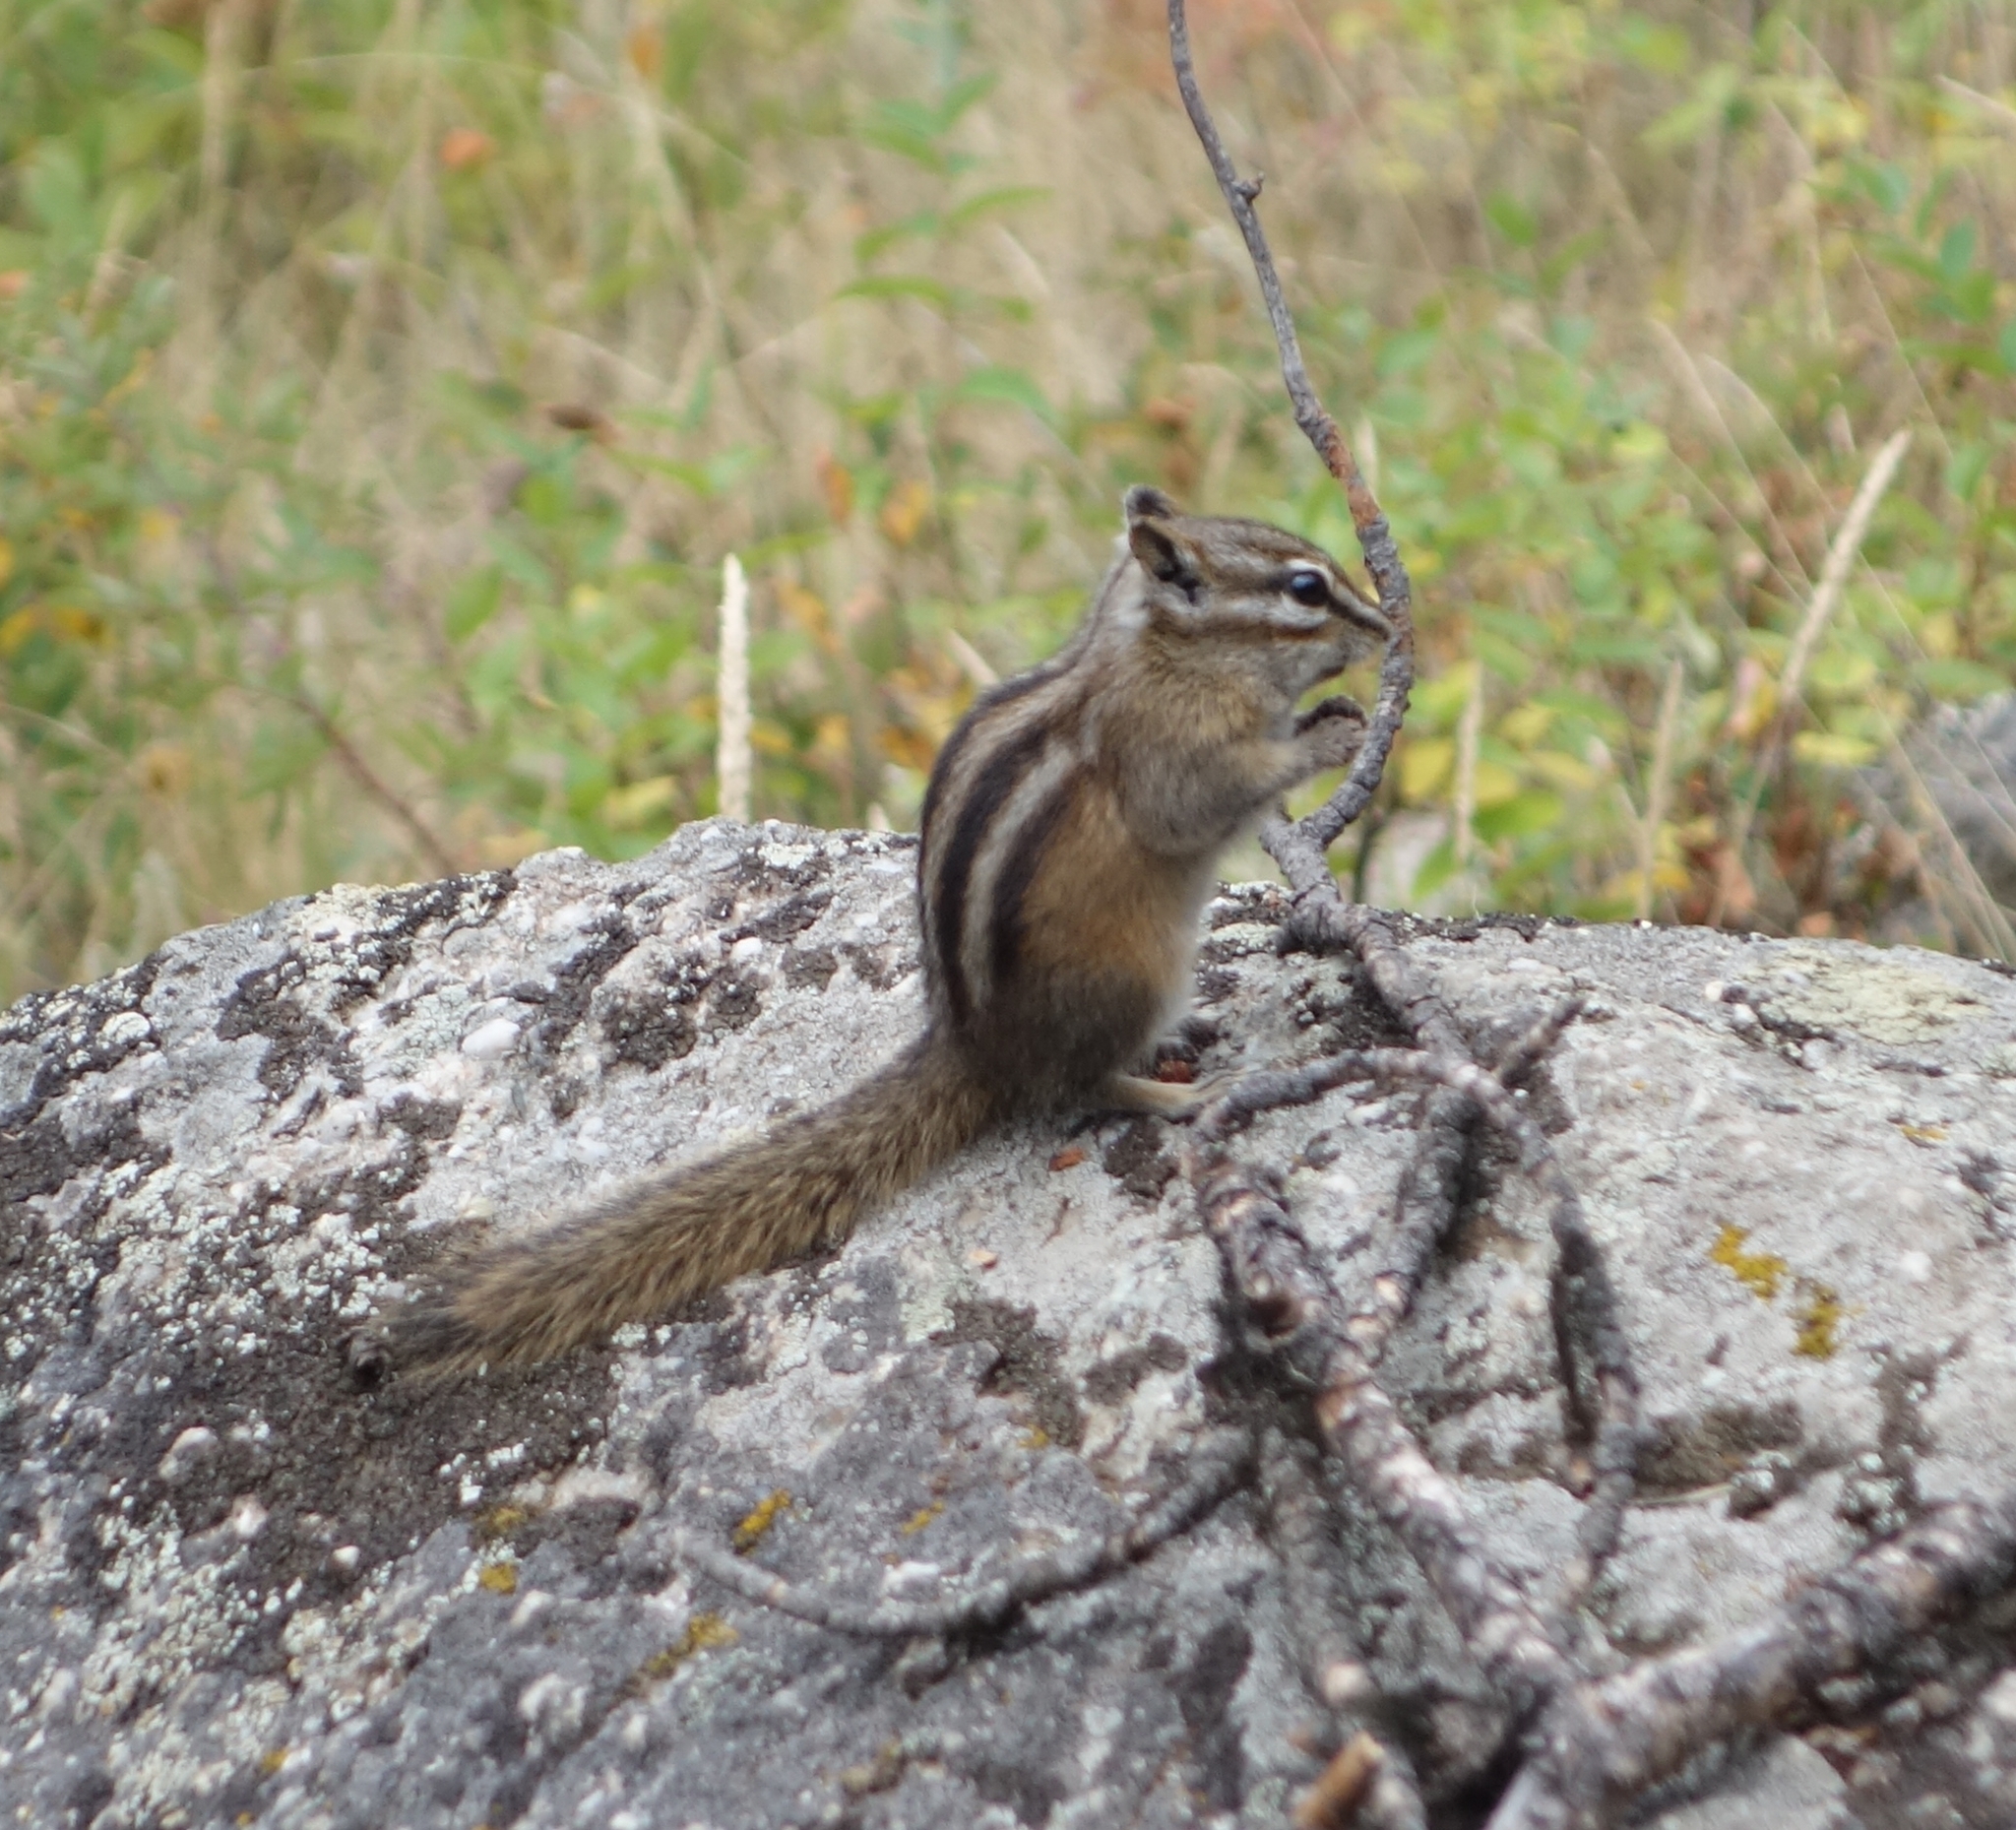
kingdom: Animalia
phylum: Chordata
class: Mammalia
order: Rodentia
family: Sciuridae
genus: Tamias
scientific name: Tamias minimus
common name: Least chipmunk
